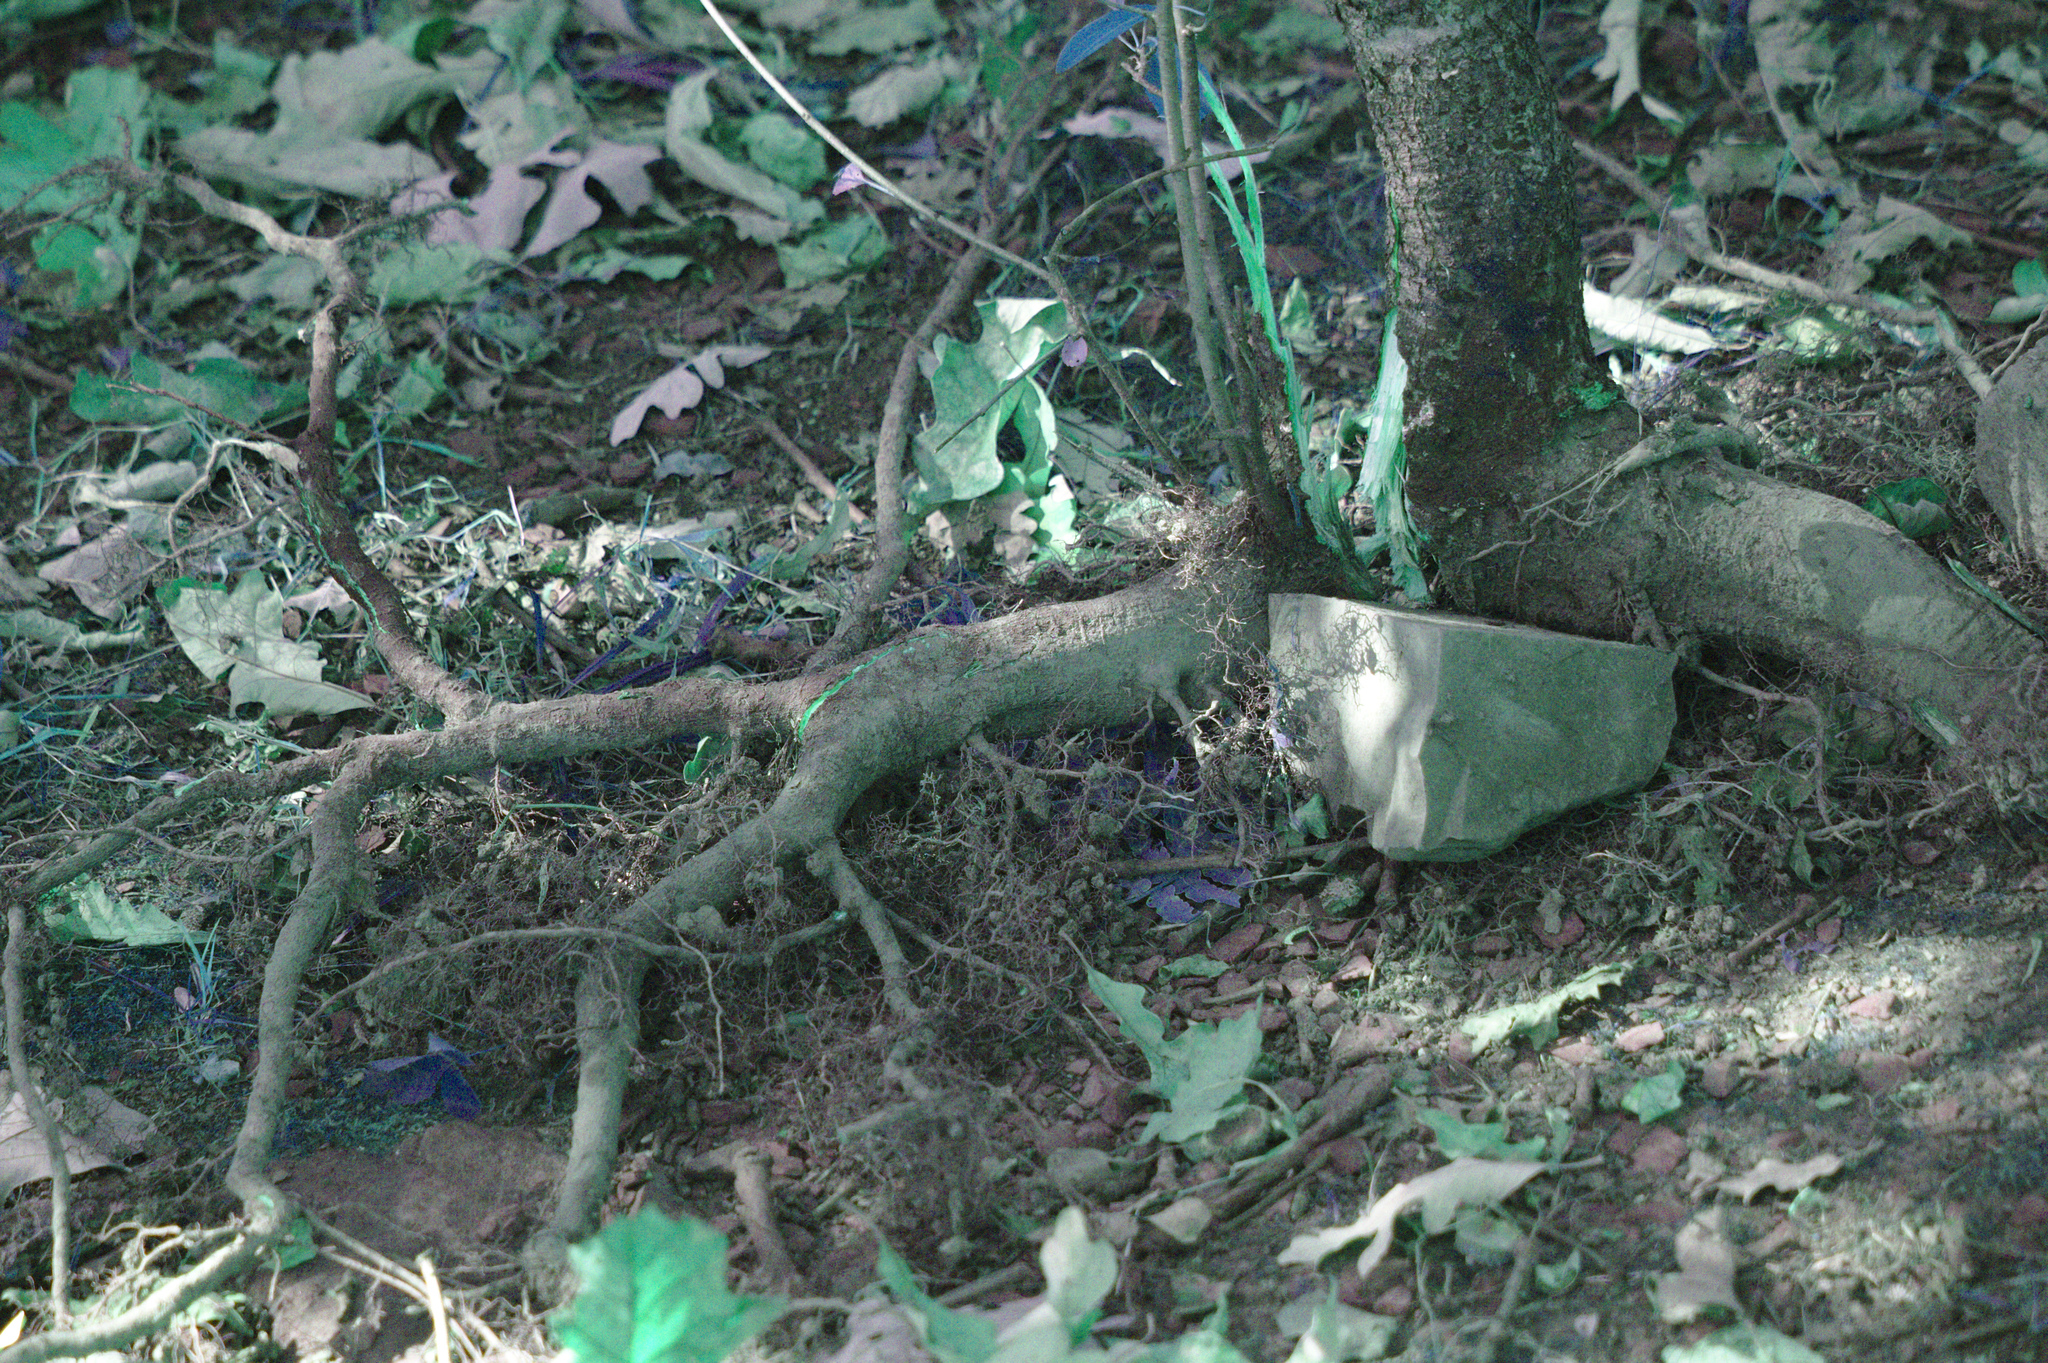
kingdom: Plantae
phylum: Tracheophyta
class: Magnoliopsida
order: Rosales
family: Rhamnaceae
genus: Rhamnus
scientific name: Rhamnus cathartica
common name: Common buckthorn
